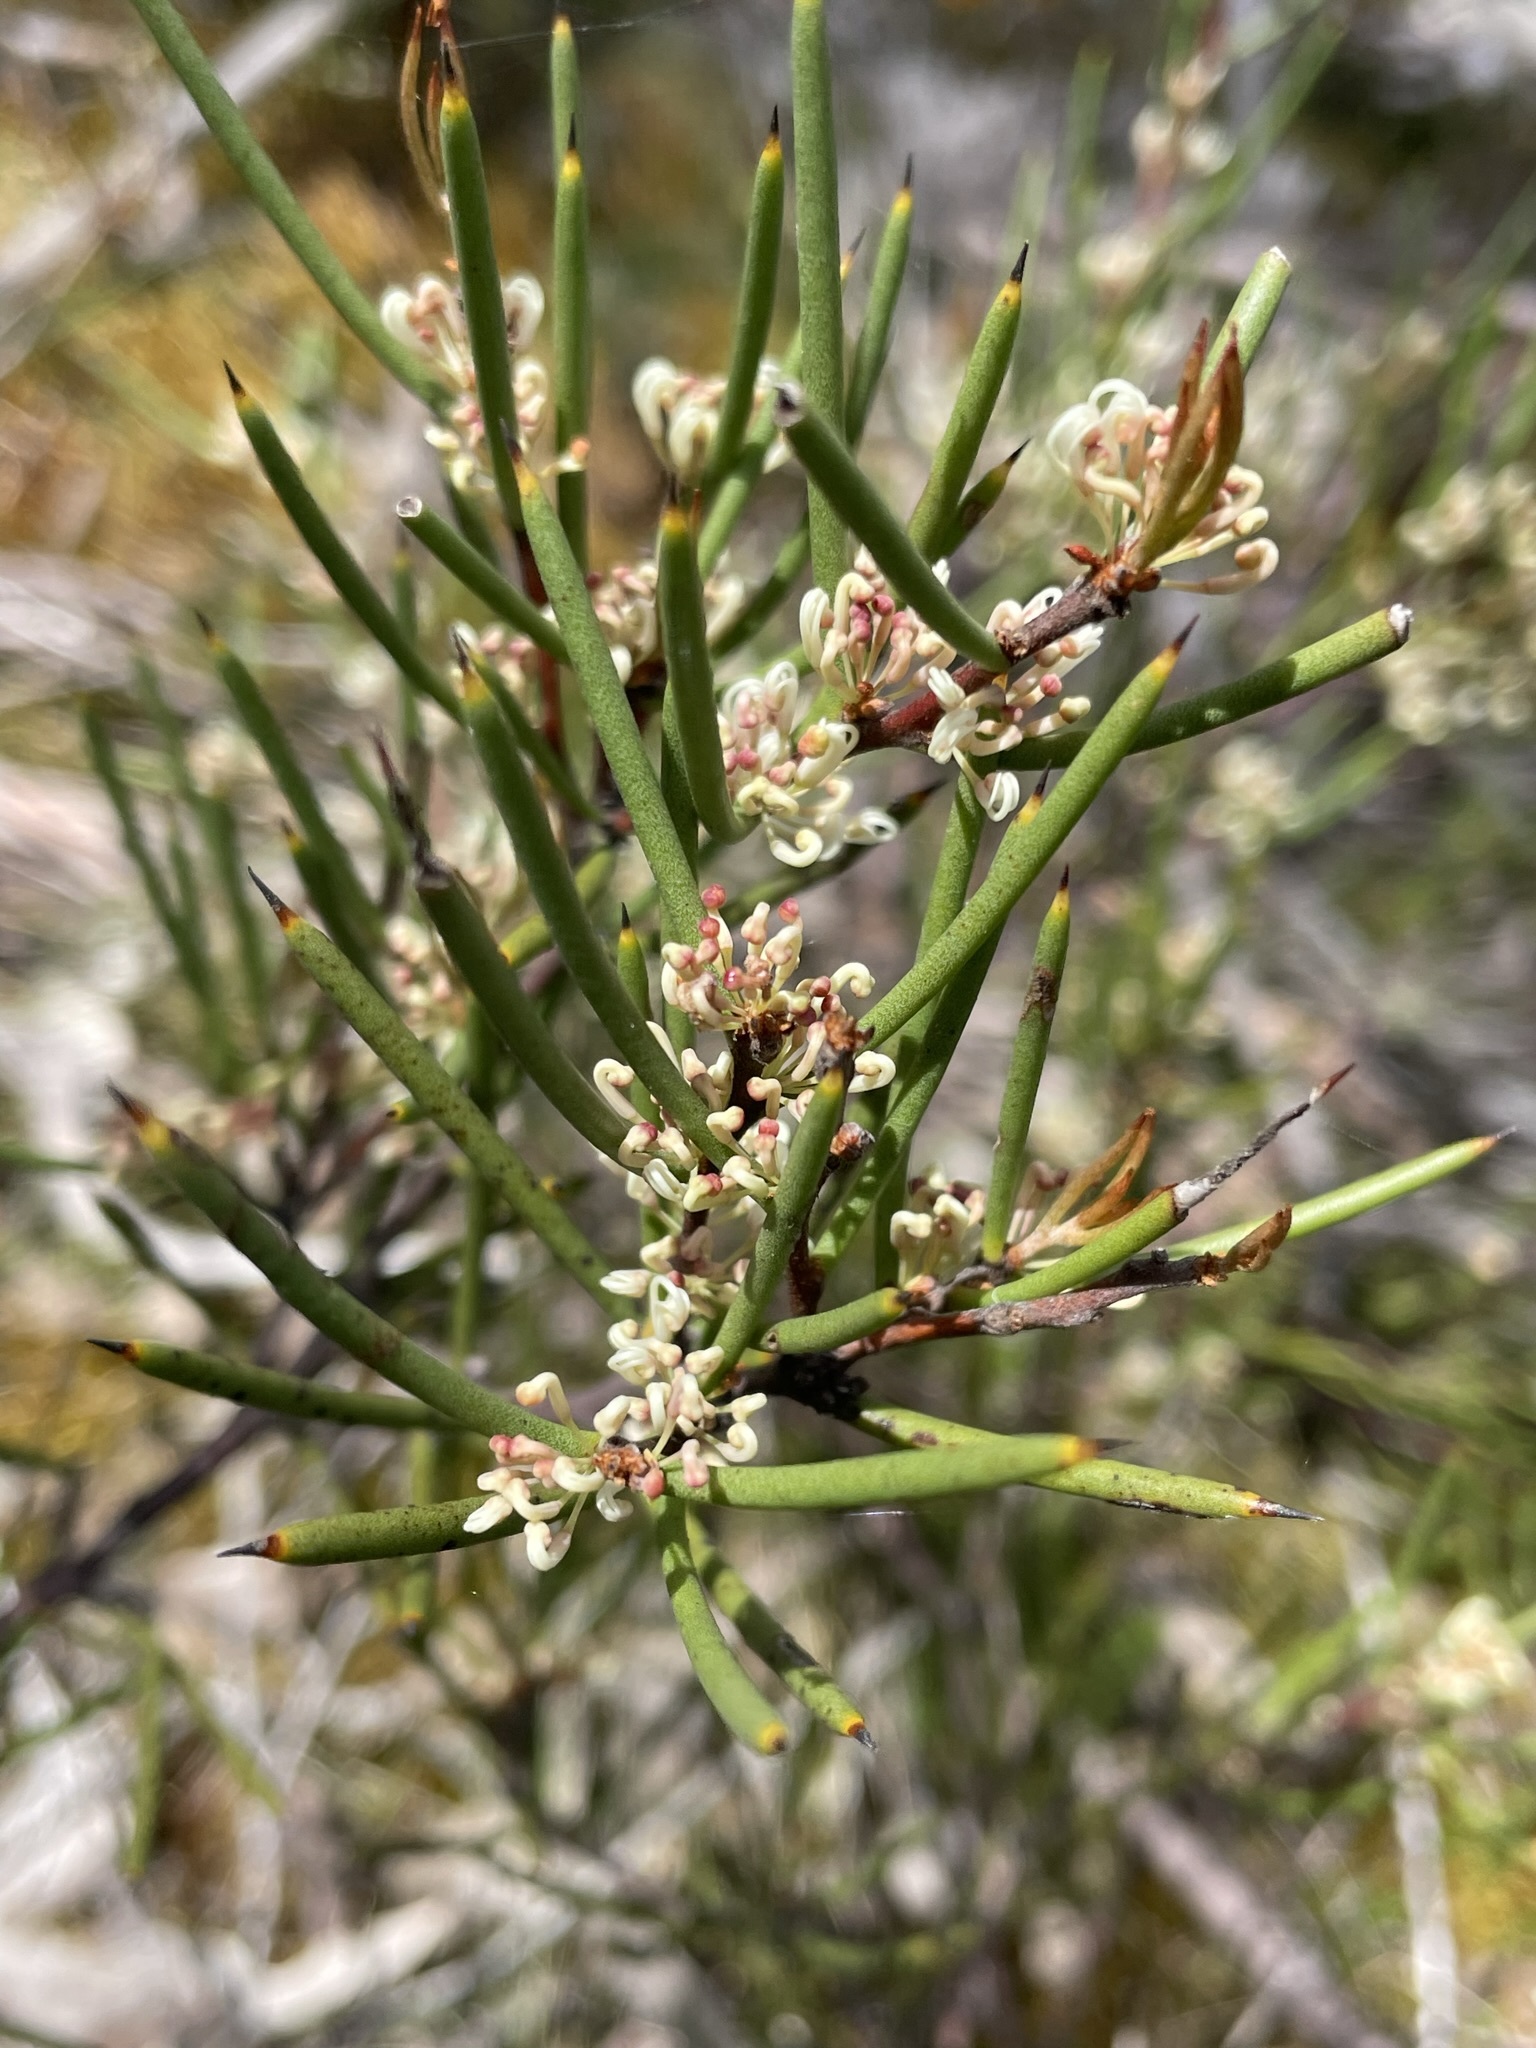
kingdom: Plantae
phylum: Tracheophyta
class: Magnoliopsida
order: Proteales
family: Proteaceae
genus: Hakea
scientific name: Hakea epiglottis
